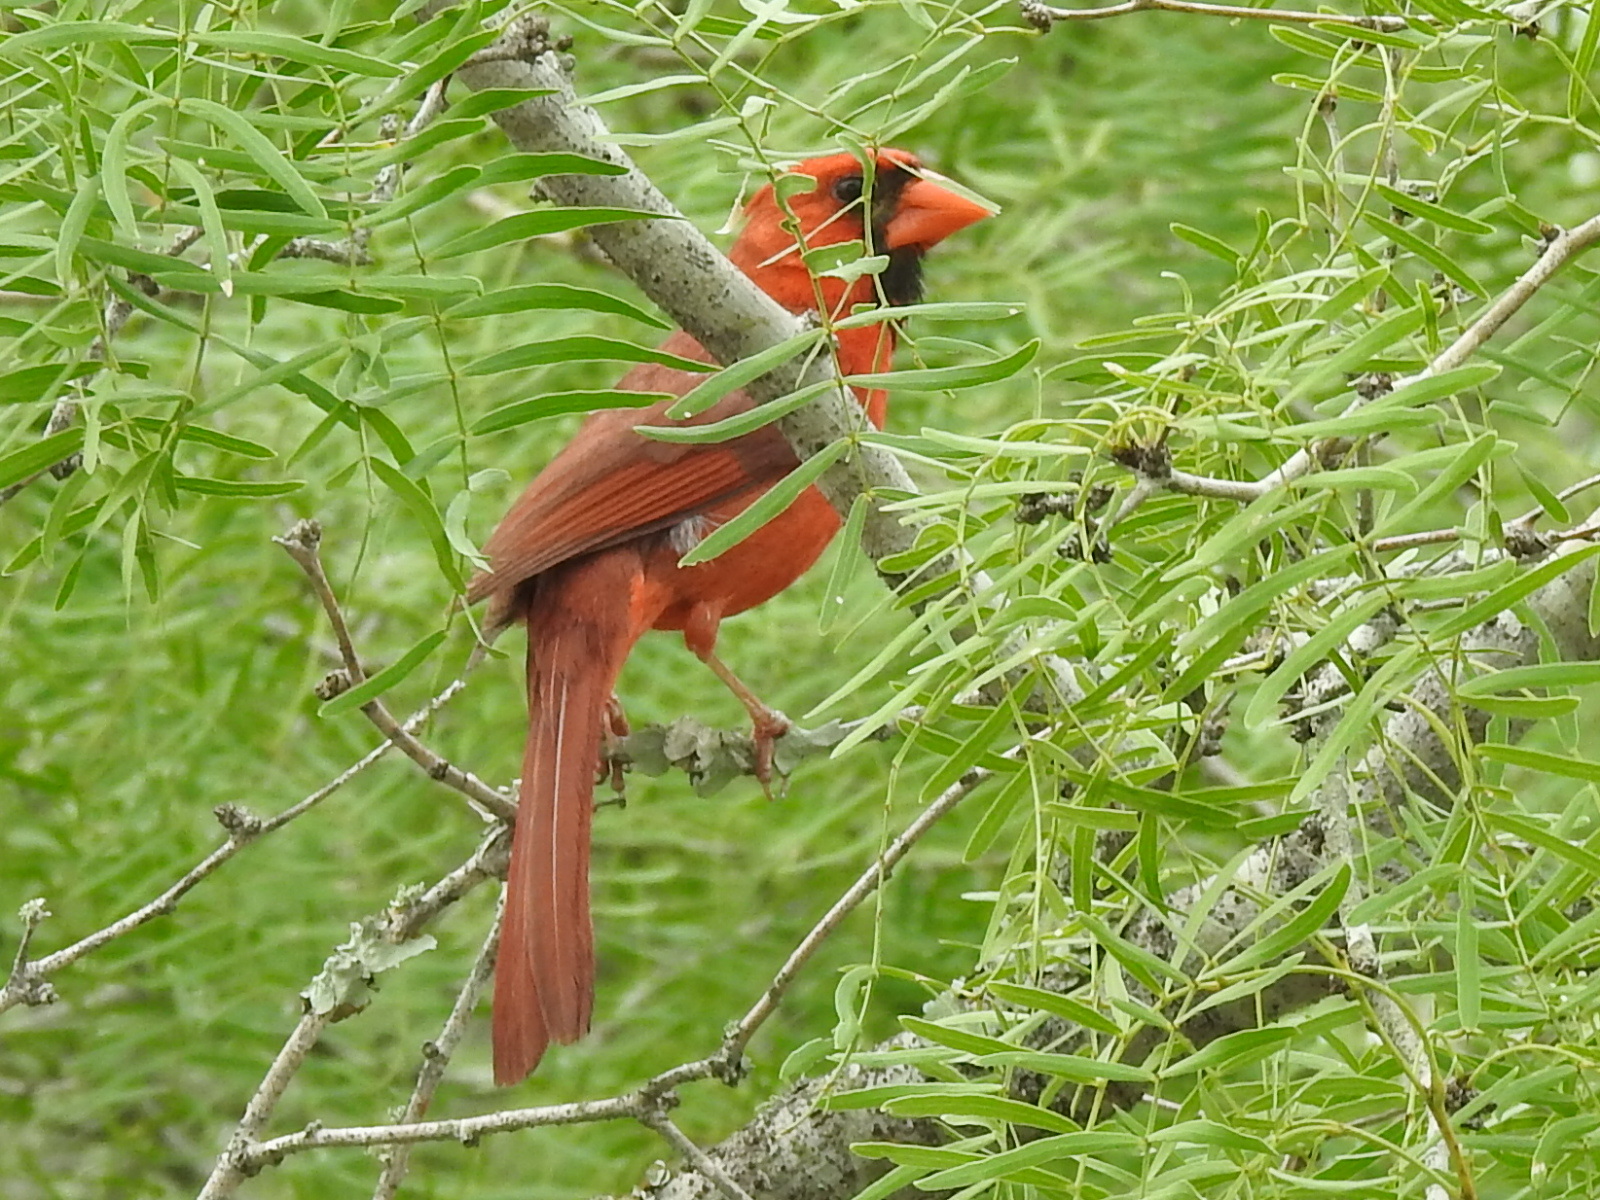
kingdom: Animalia
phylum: Chordata
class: Aves
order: Passeriformes
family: Cardinalidae
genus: Cardinalis
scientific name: Cardinalis cardinalis
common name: Northern cardinal
